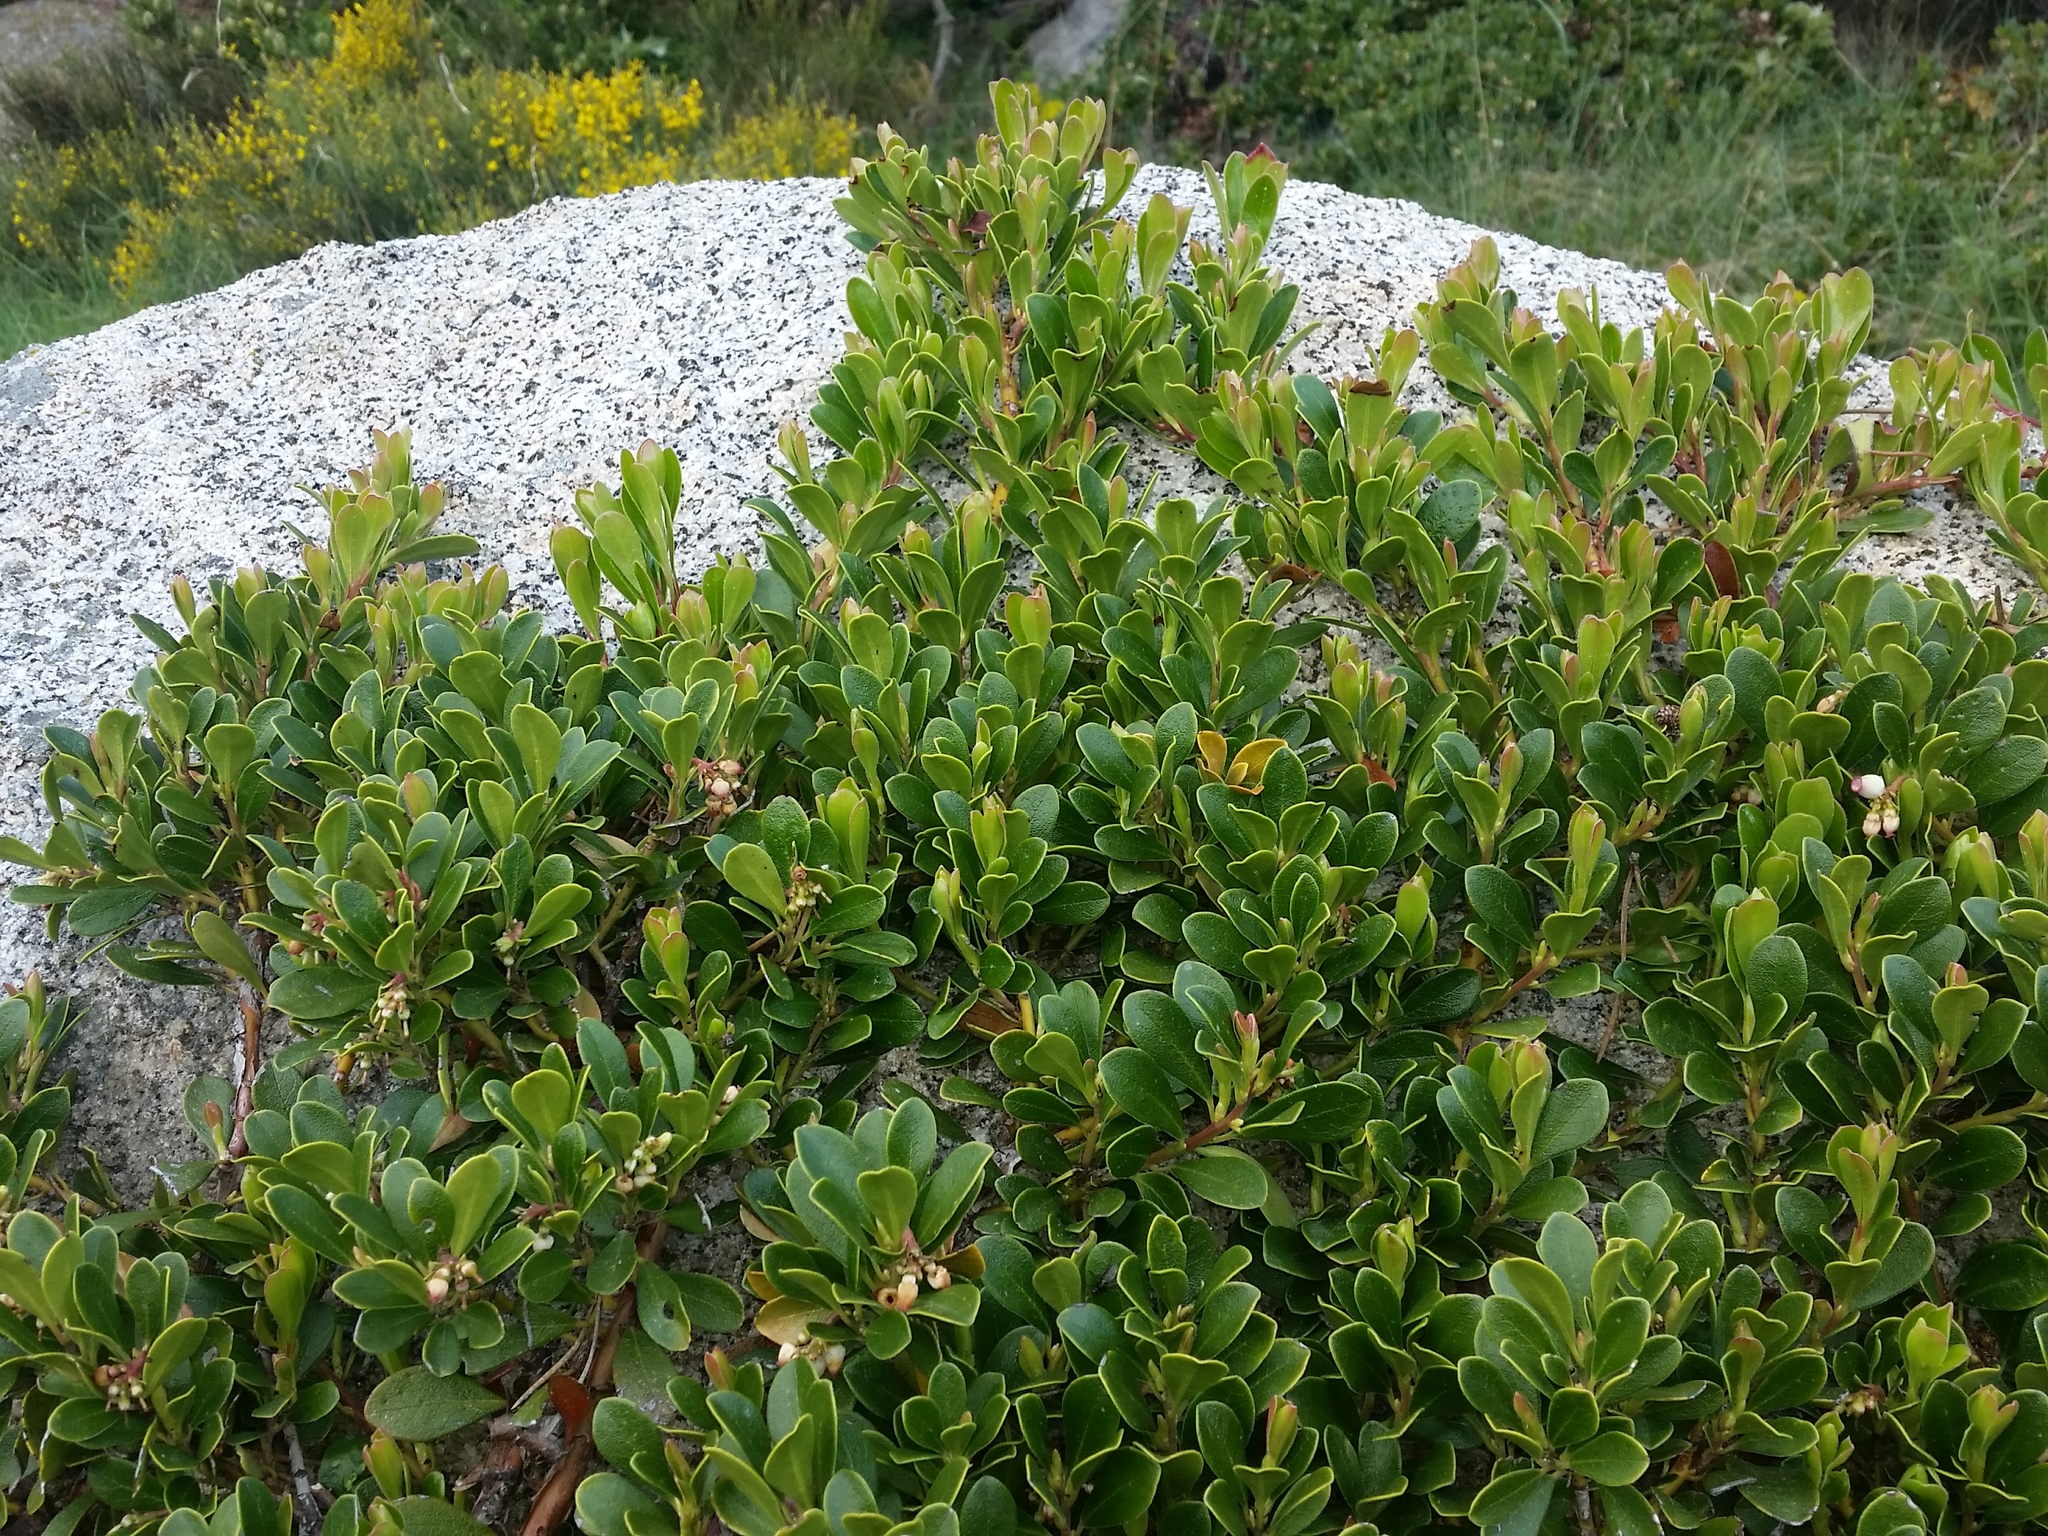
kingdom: Plantae
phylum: Tracheophyta
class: Magnoliopsida
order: Ericales
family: Ericaceae
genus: Arctostaphylos
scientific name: Arctostaphylos uva-ursi
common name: Bearberry
